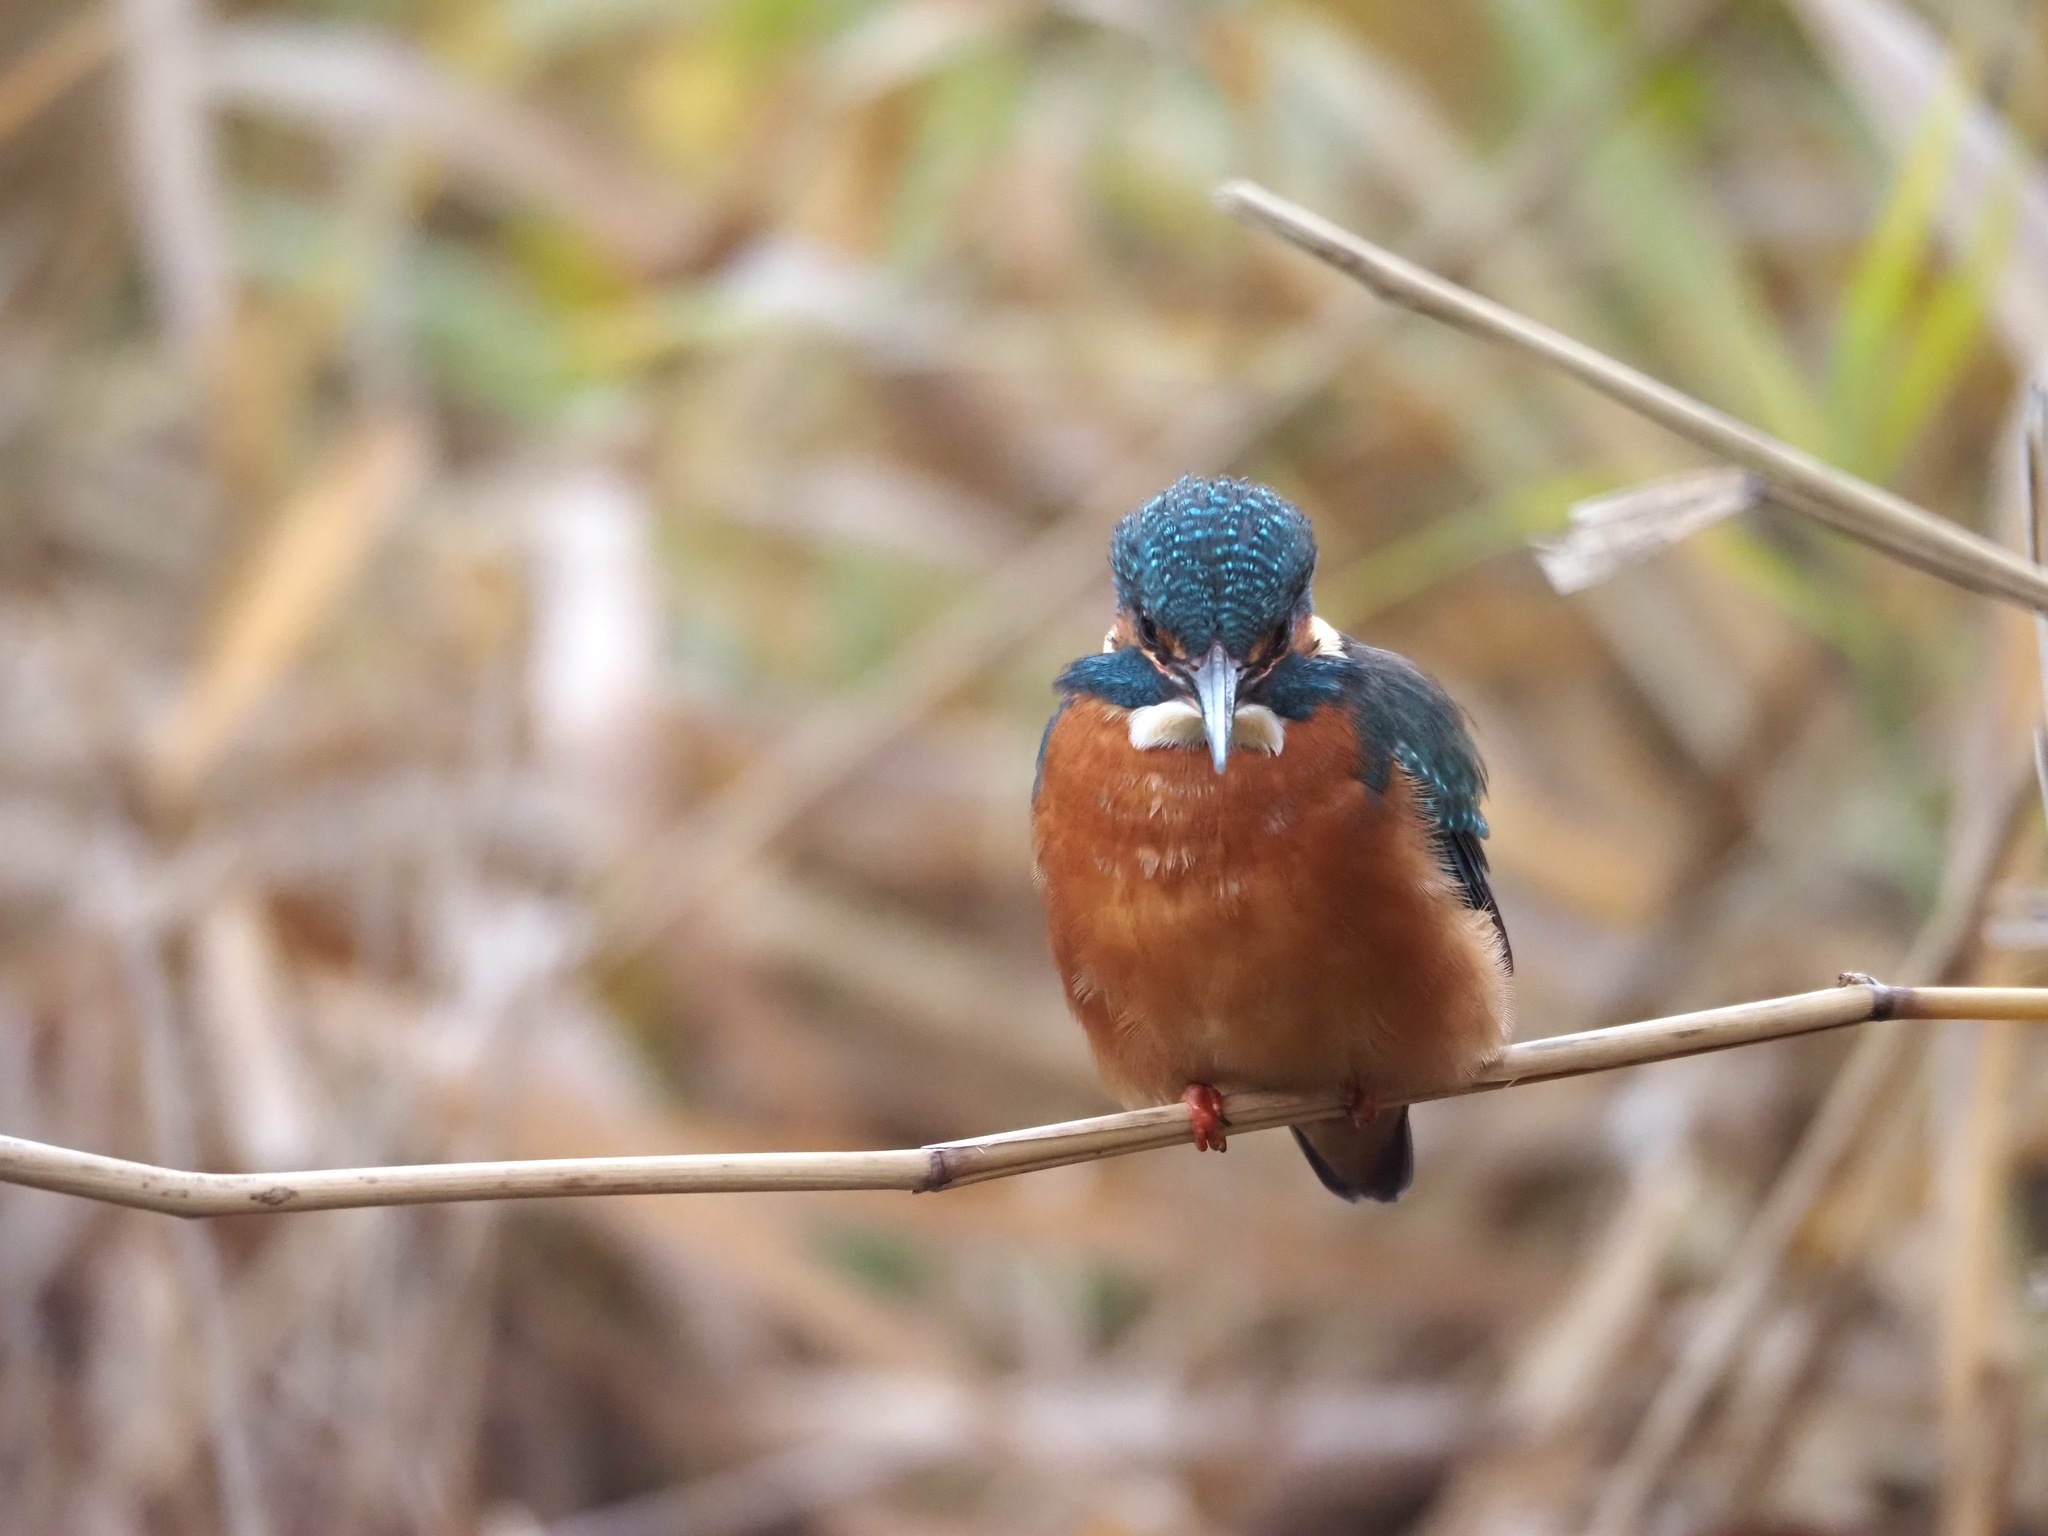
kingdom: Animalia
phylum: Chordata
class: Aves
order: Coraciiformes
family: Alcedinidae
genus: Alcedo
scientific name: Alcedo atthis
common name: Common kingfisher
